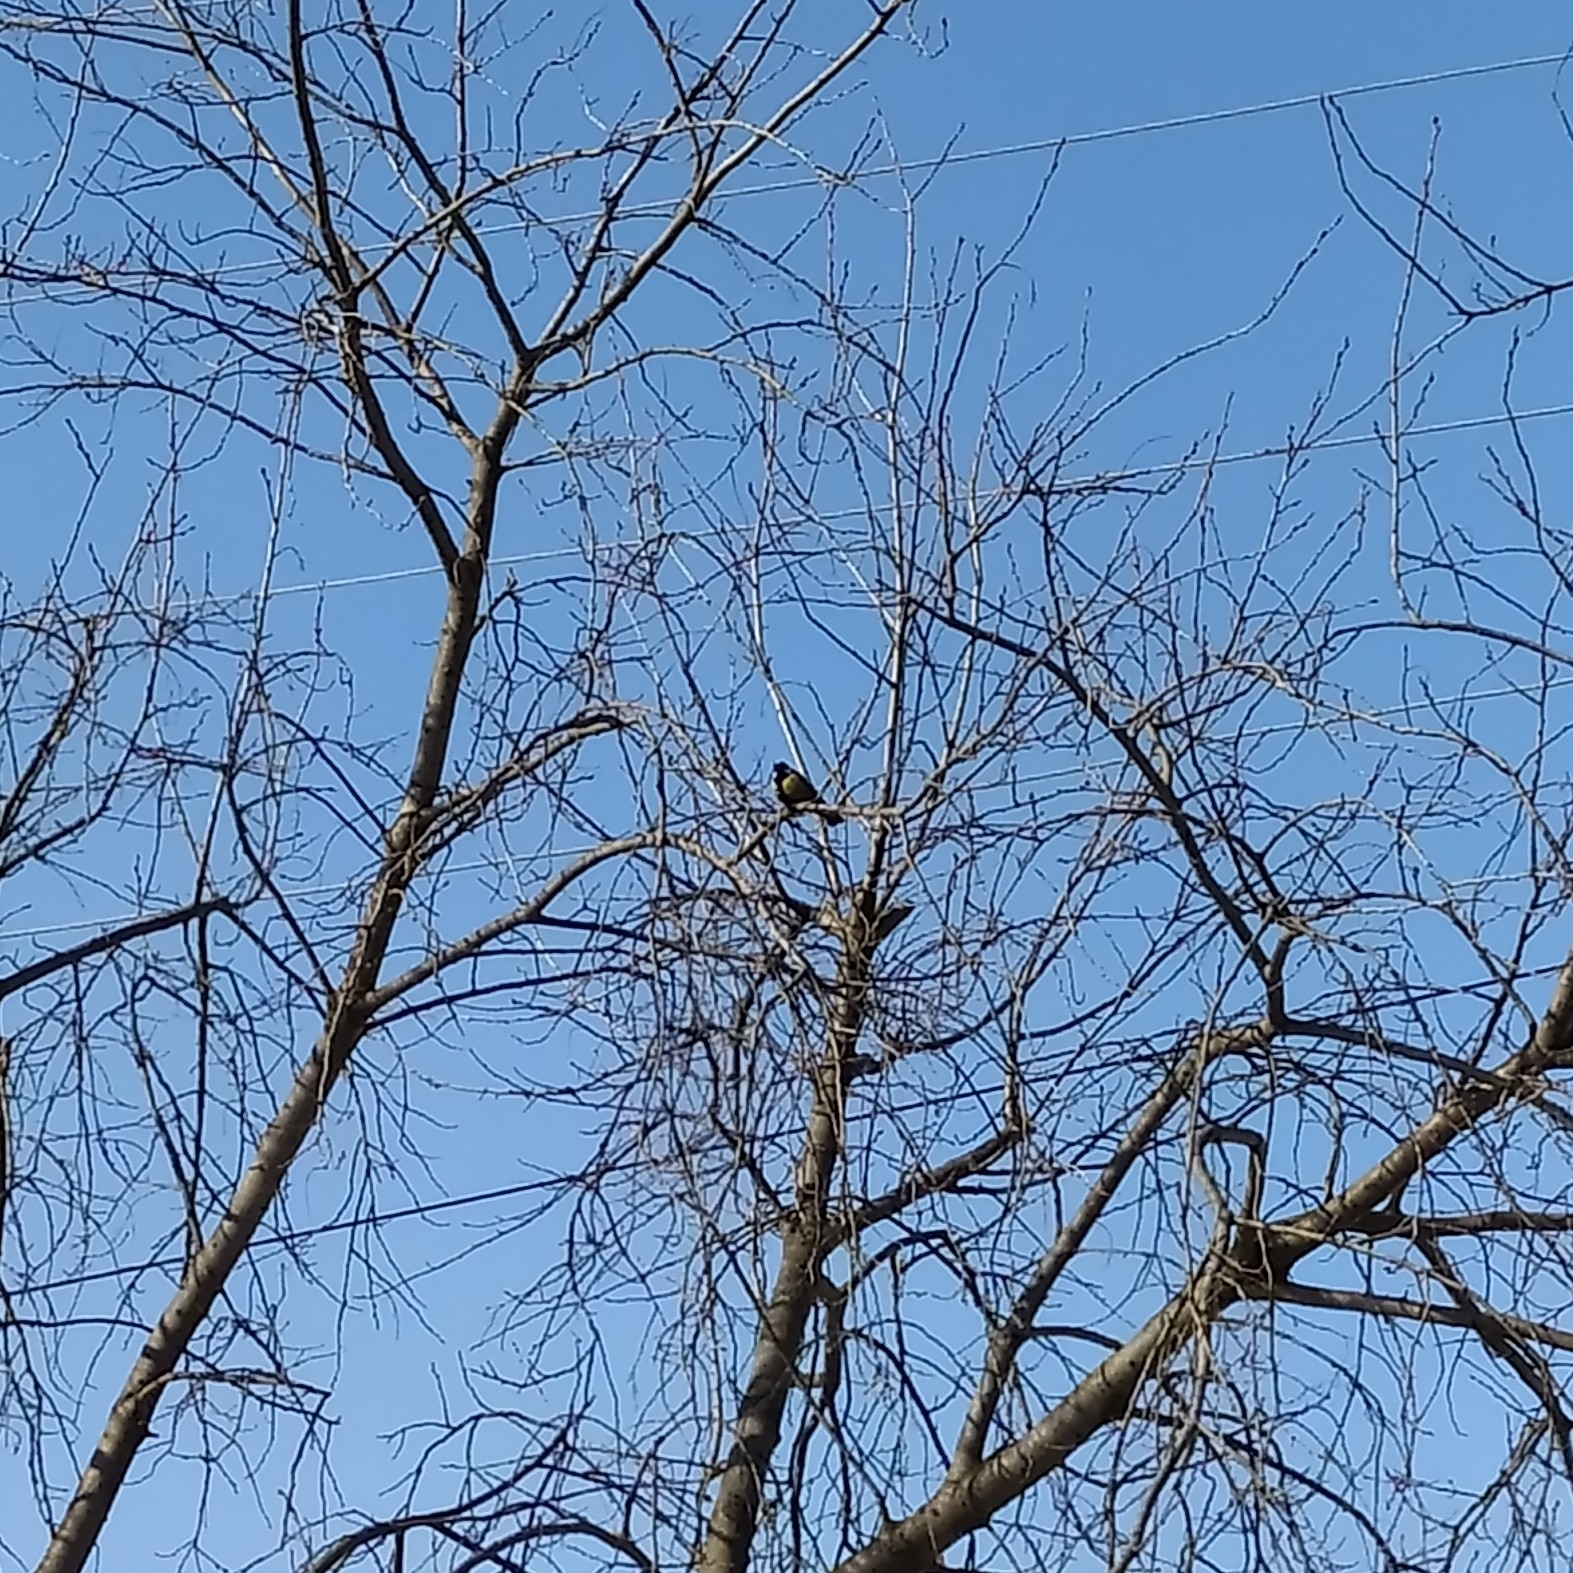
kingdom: Animalia
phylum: Chordata
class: Aves
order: Passeriformes
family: Paridae
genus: Parus
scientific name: Parus major
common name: Great tit
